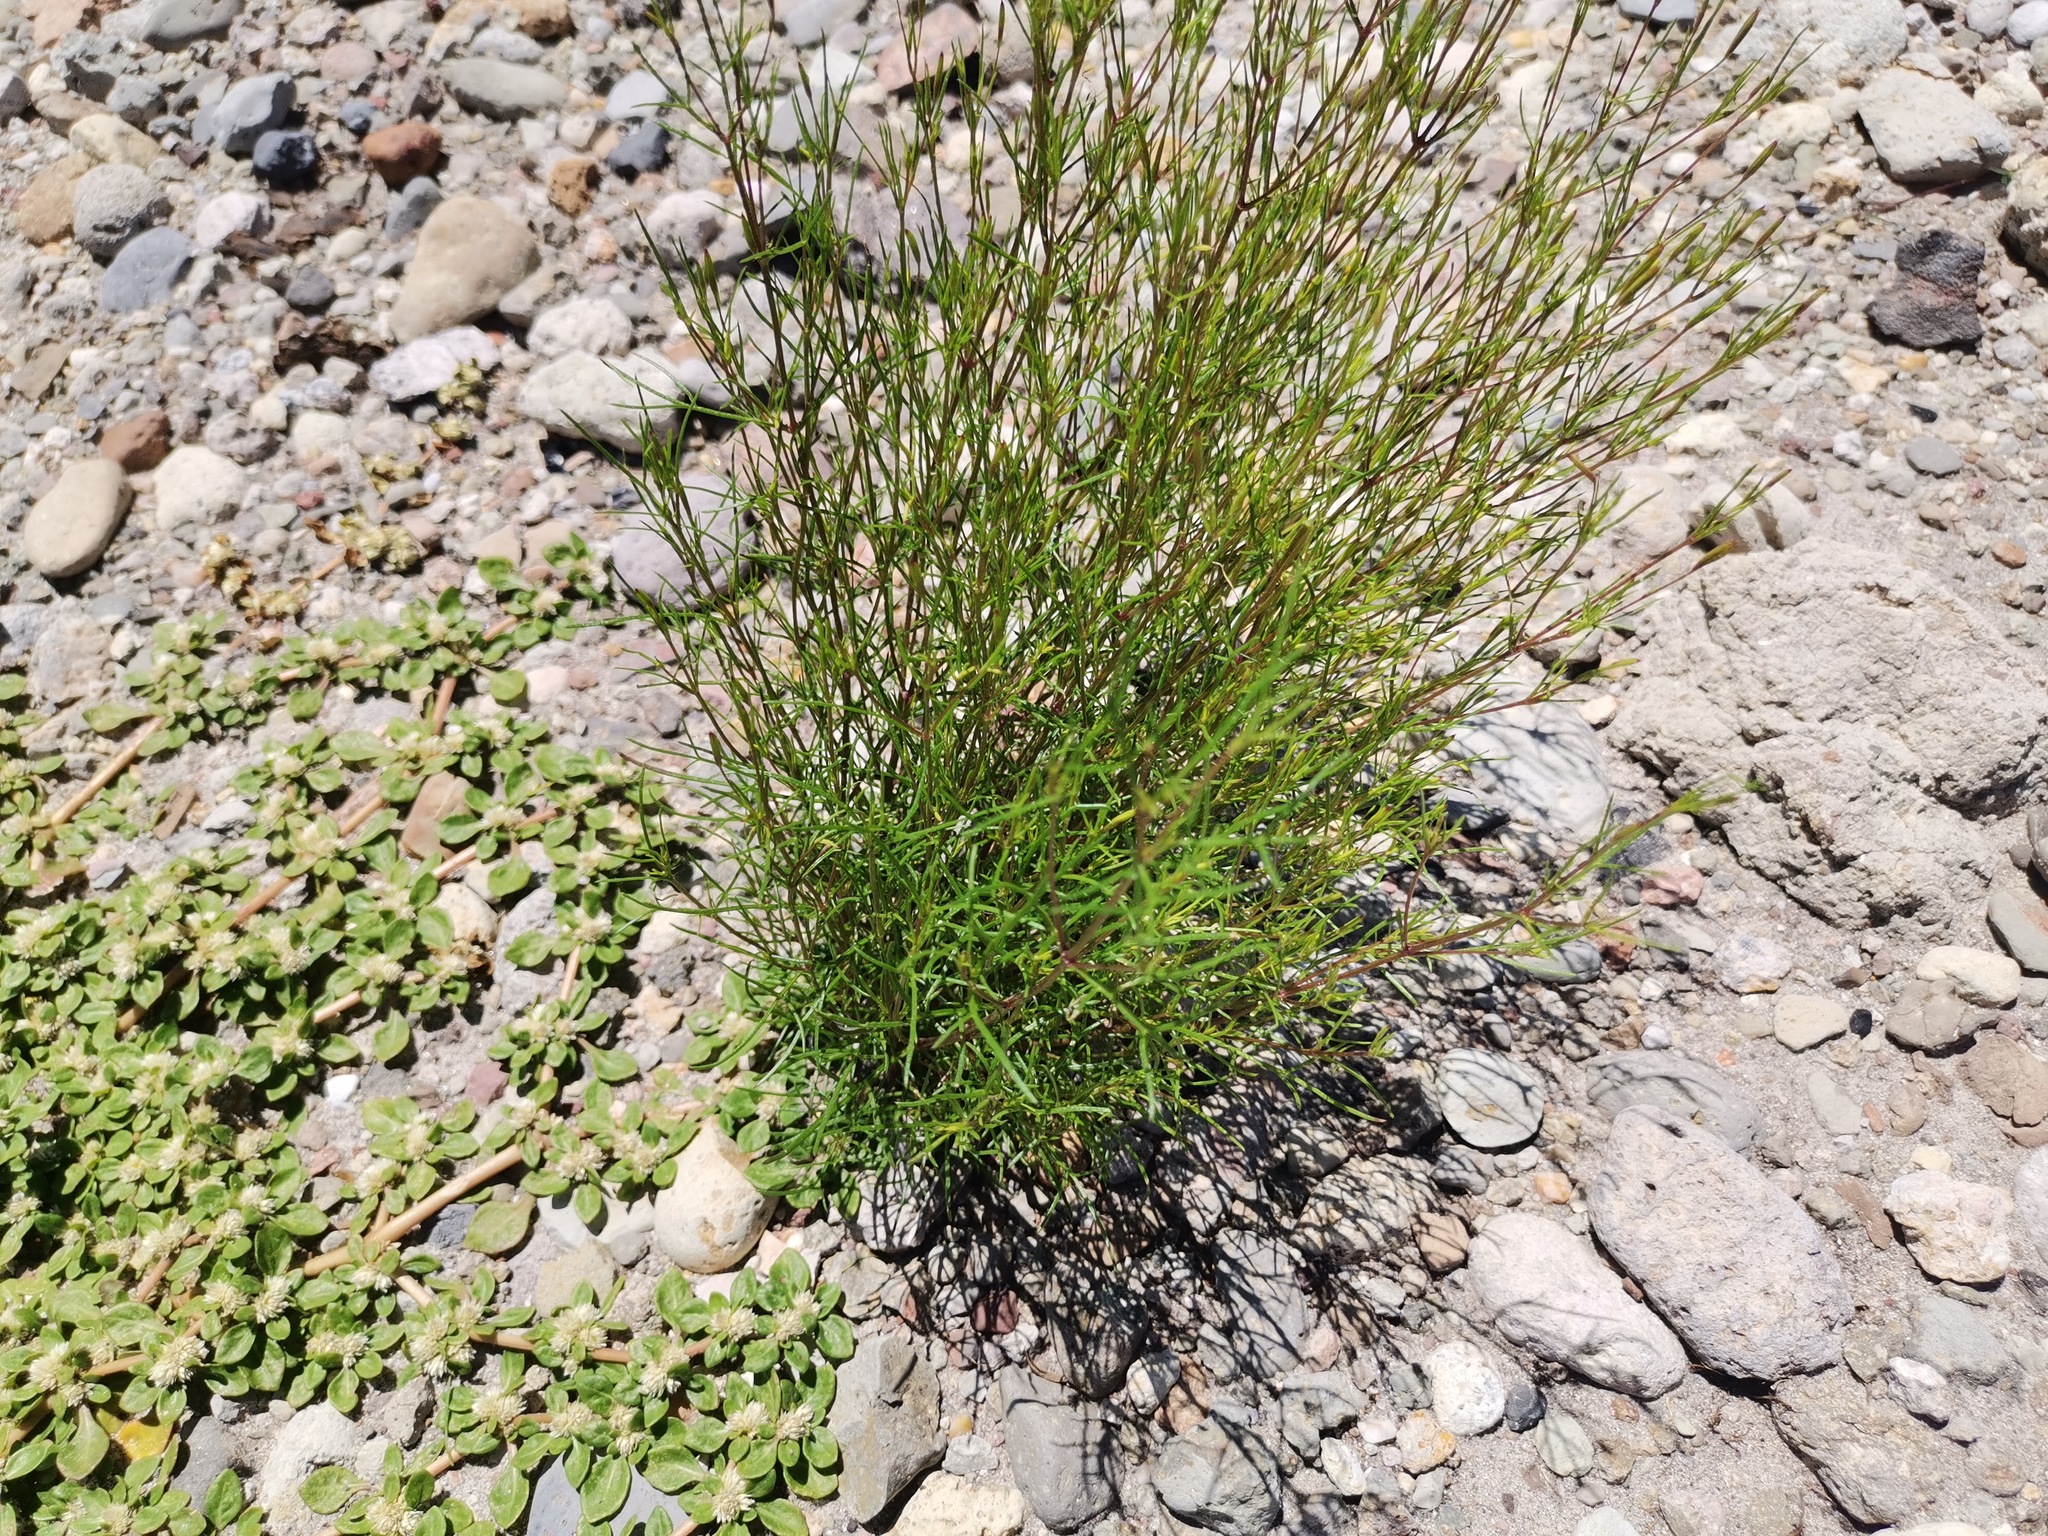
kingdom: Plantae
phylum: Tracheophyta
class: Magnoliopsida
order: Asterales
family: Asteraceae
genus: Tagetes
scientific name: Tagetes micrantha
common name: Licorice marigold
